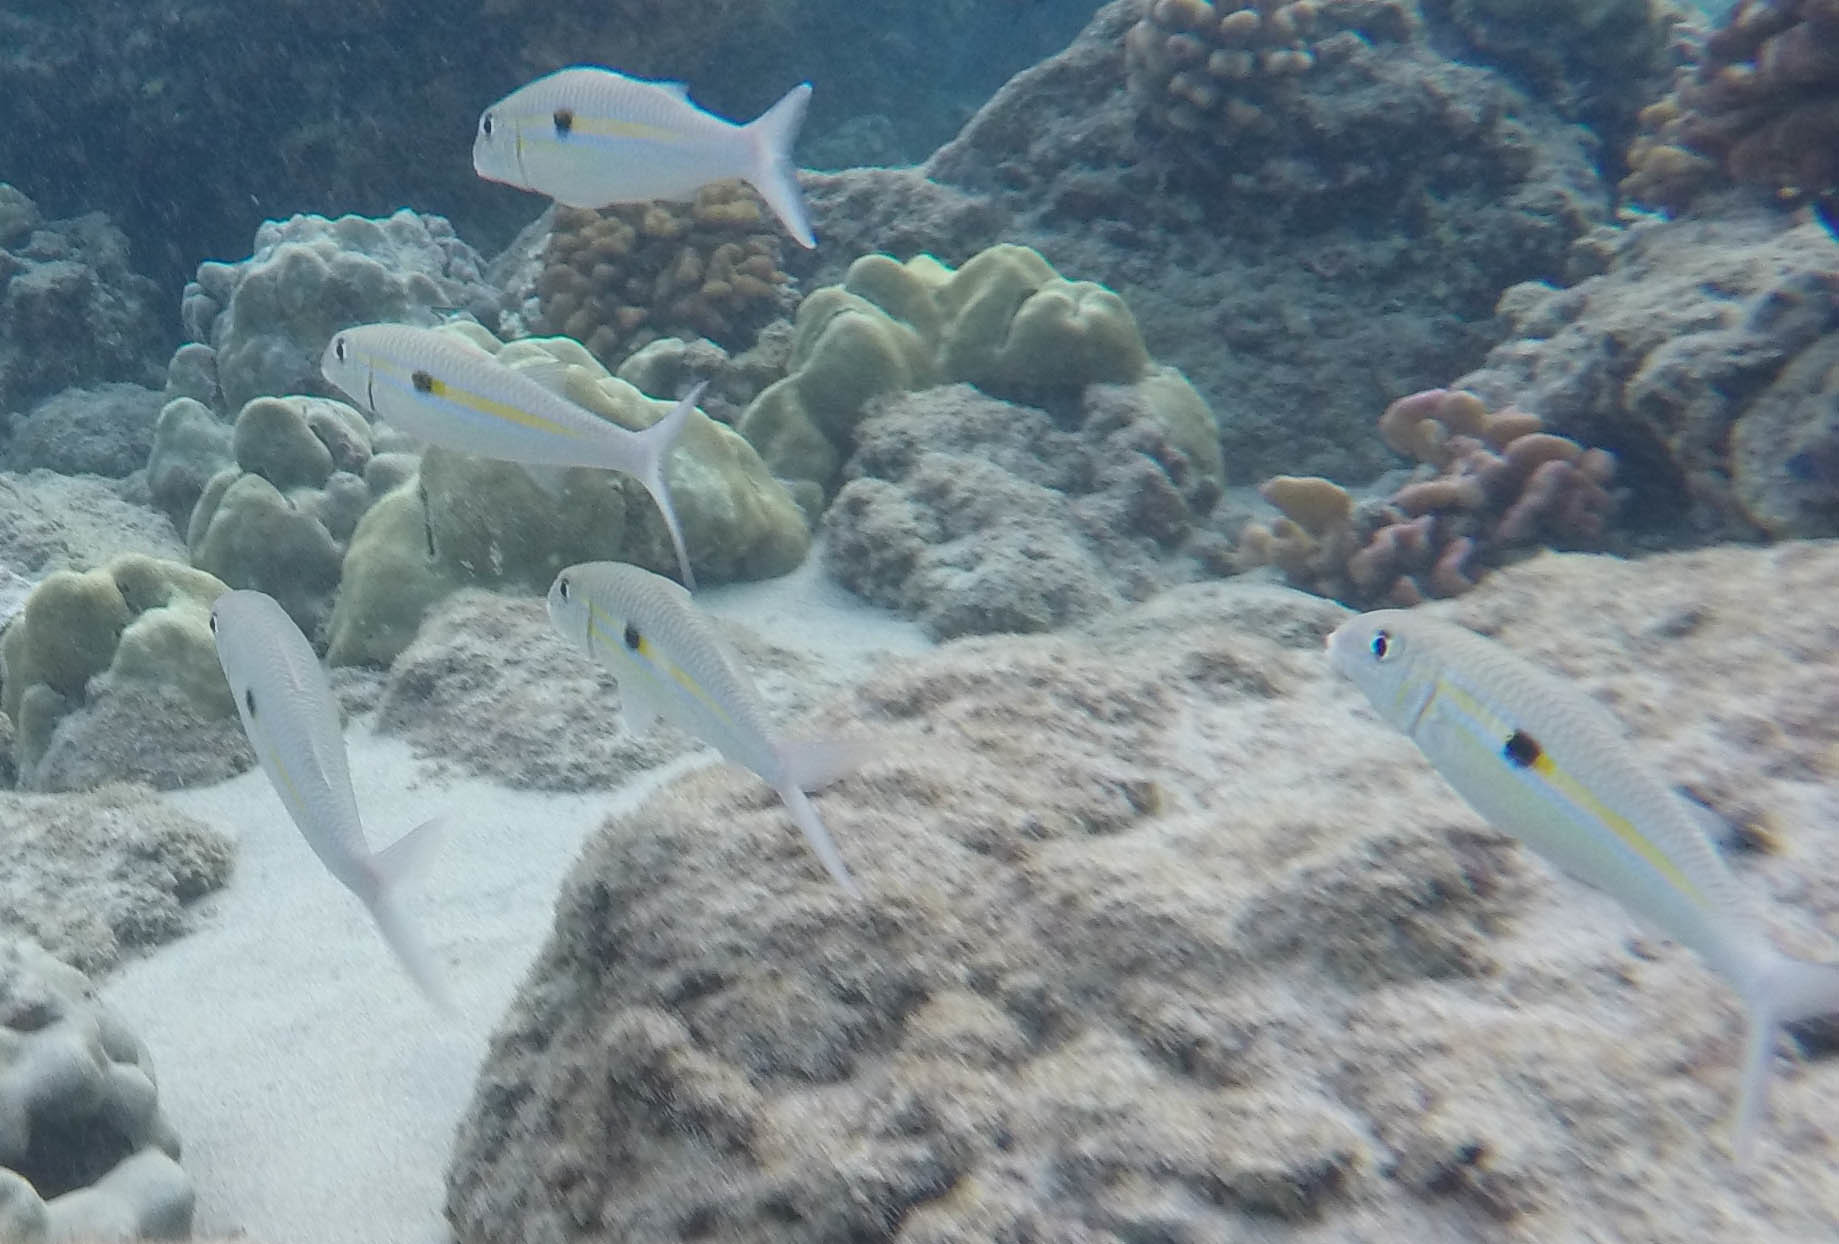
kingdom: Animalia
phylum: Chordata
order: Perciformes
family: Mullidae
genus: Mulloidichthys
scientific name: Mulloidichthys flavolineatus
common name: Yellowstripe goatfish
